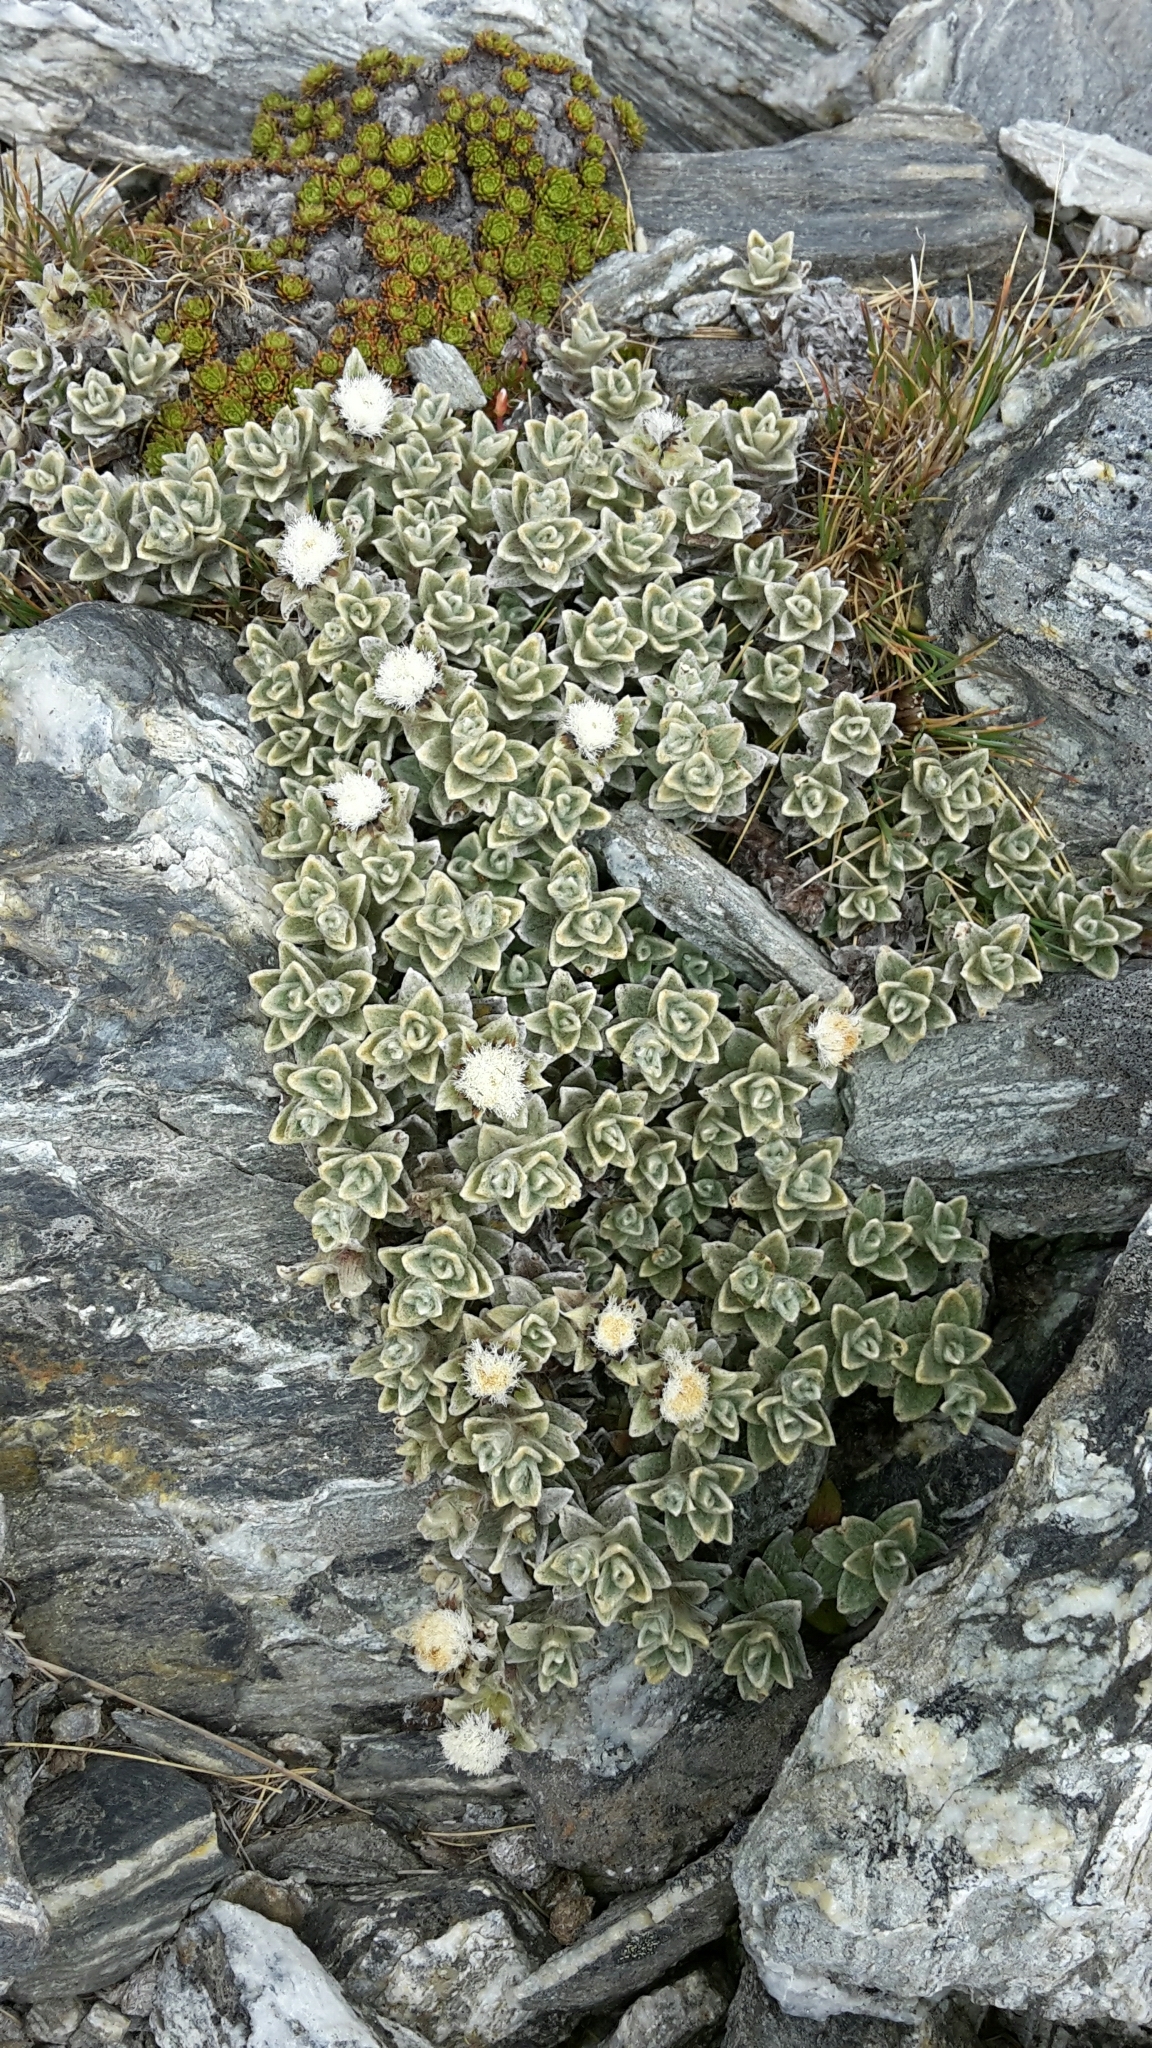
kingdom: Plantae
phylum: Tracheophyta
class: Magnoliopsida
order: Asterales
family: Asteraceae
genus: Haastia
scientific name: Haastia sinclairii
